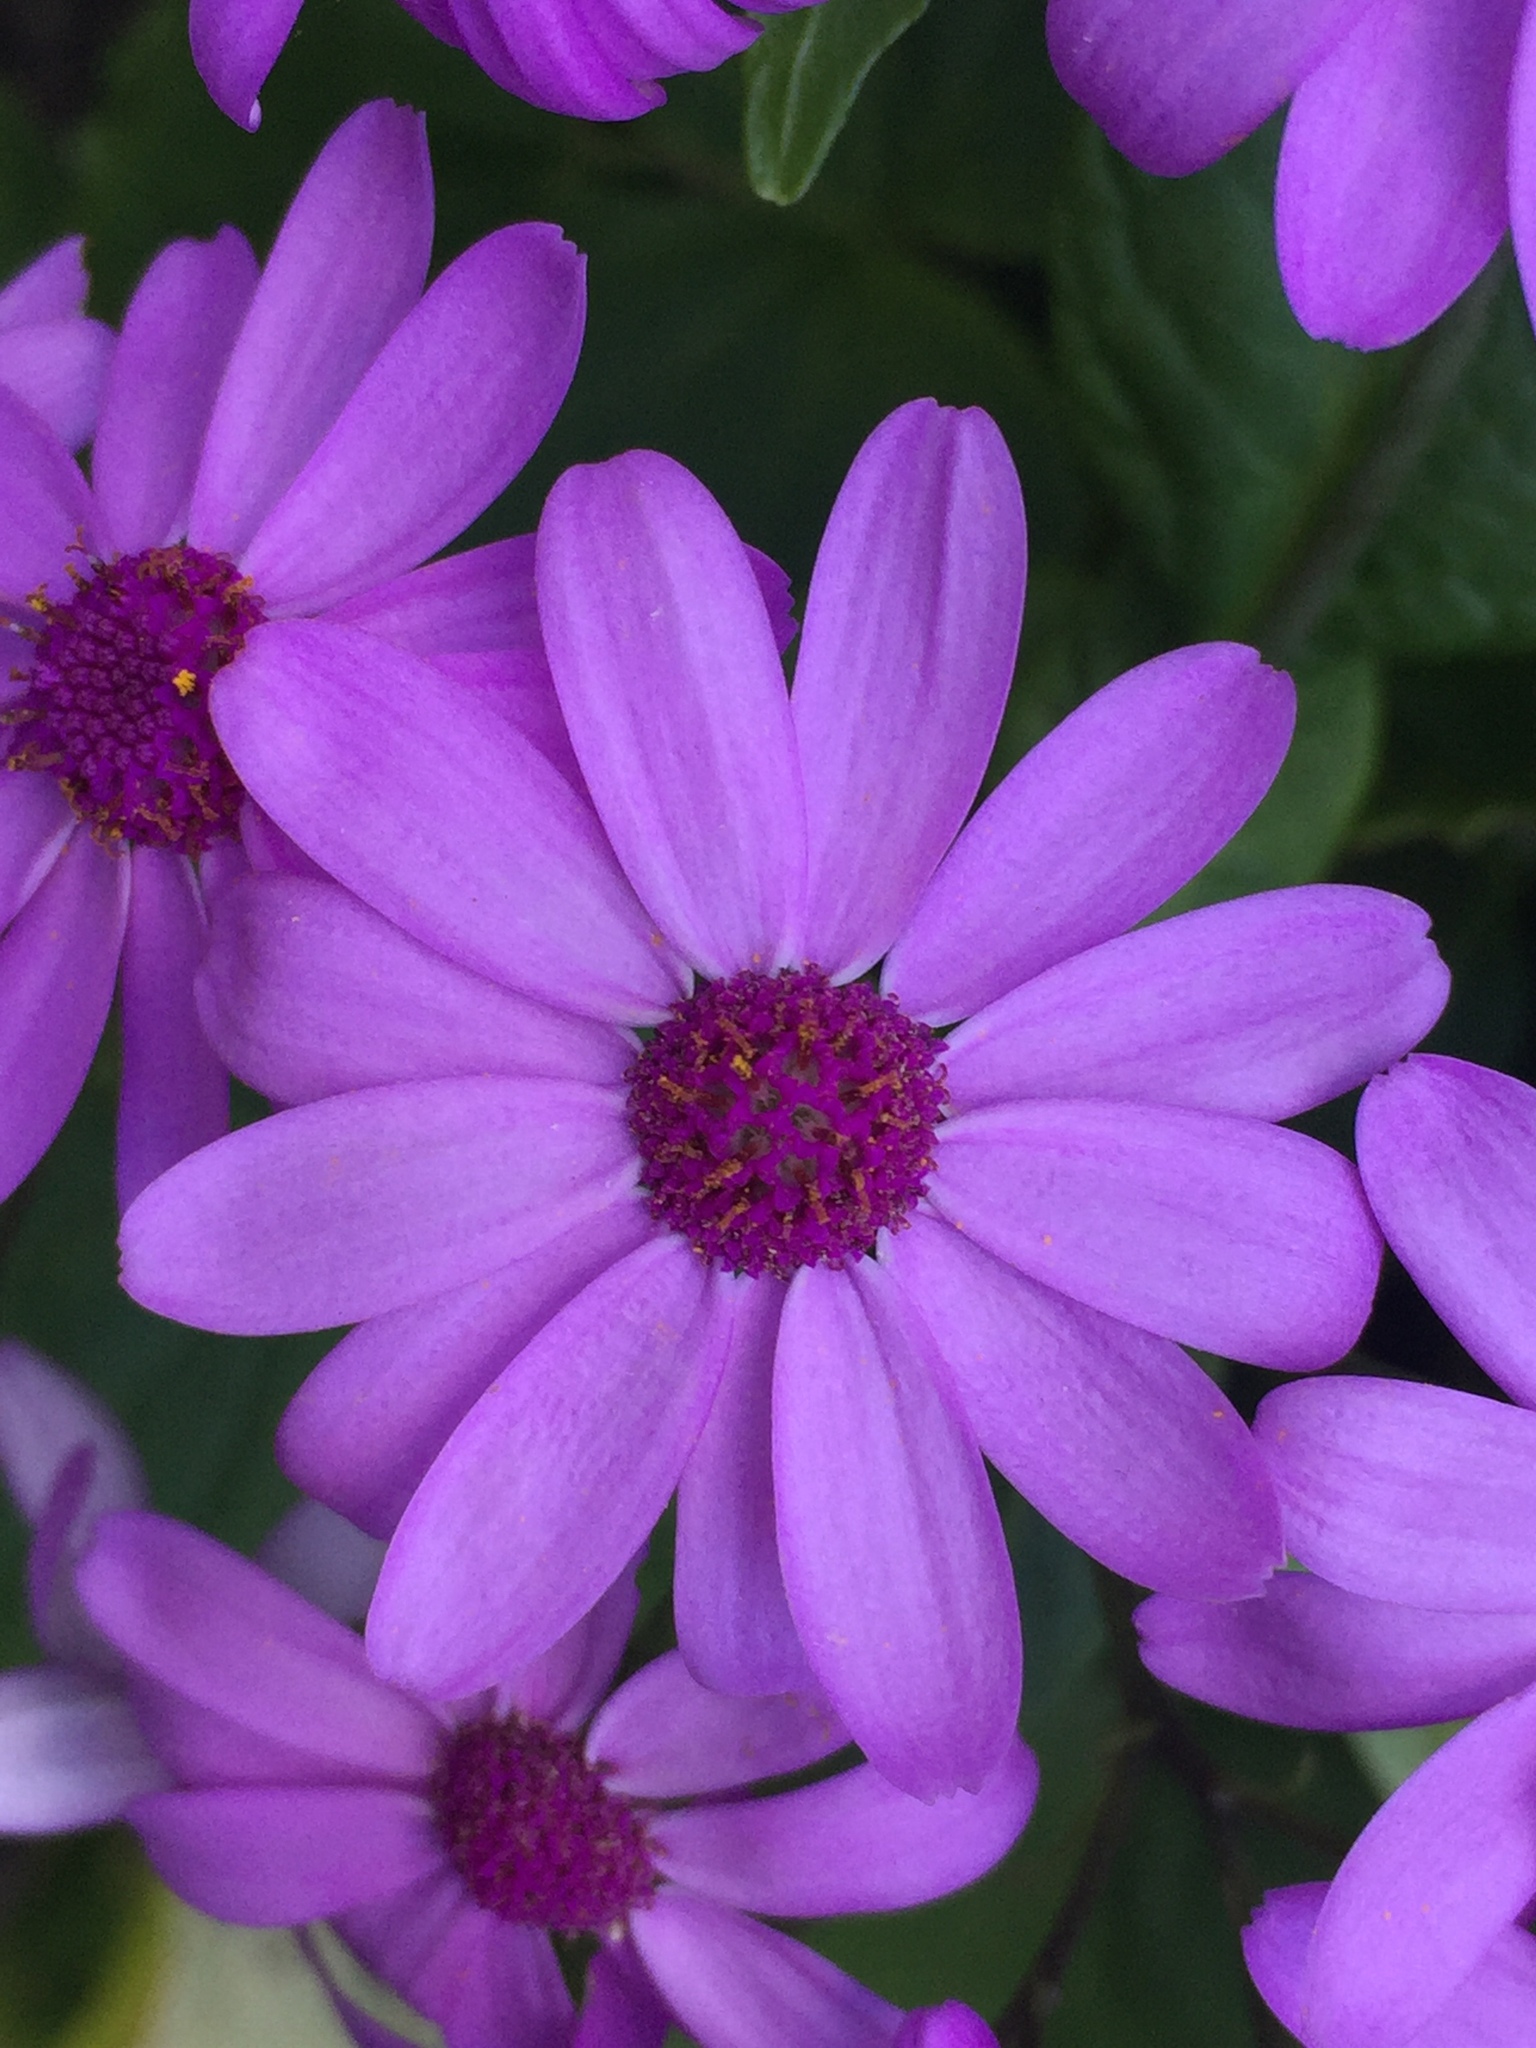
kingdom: Plantae
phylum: Tracheophyta
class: Magnoliopsida
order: Asterales
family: Asteraceae
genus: Pericallis
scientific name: Pericallis hybrida
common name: Cineraria
